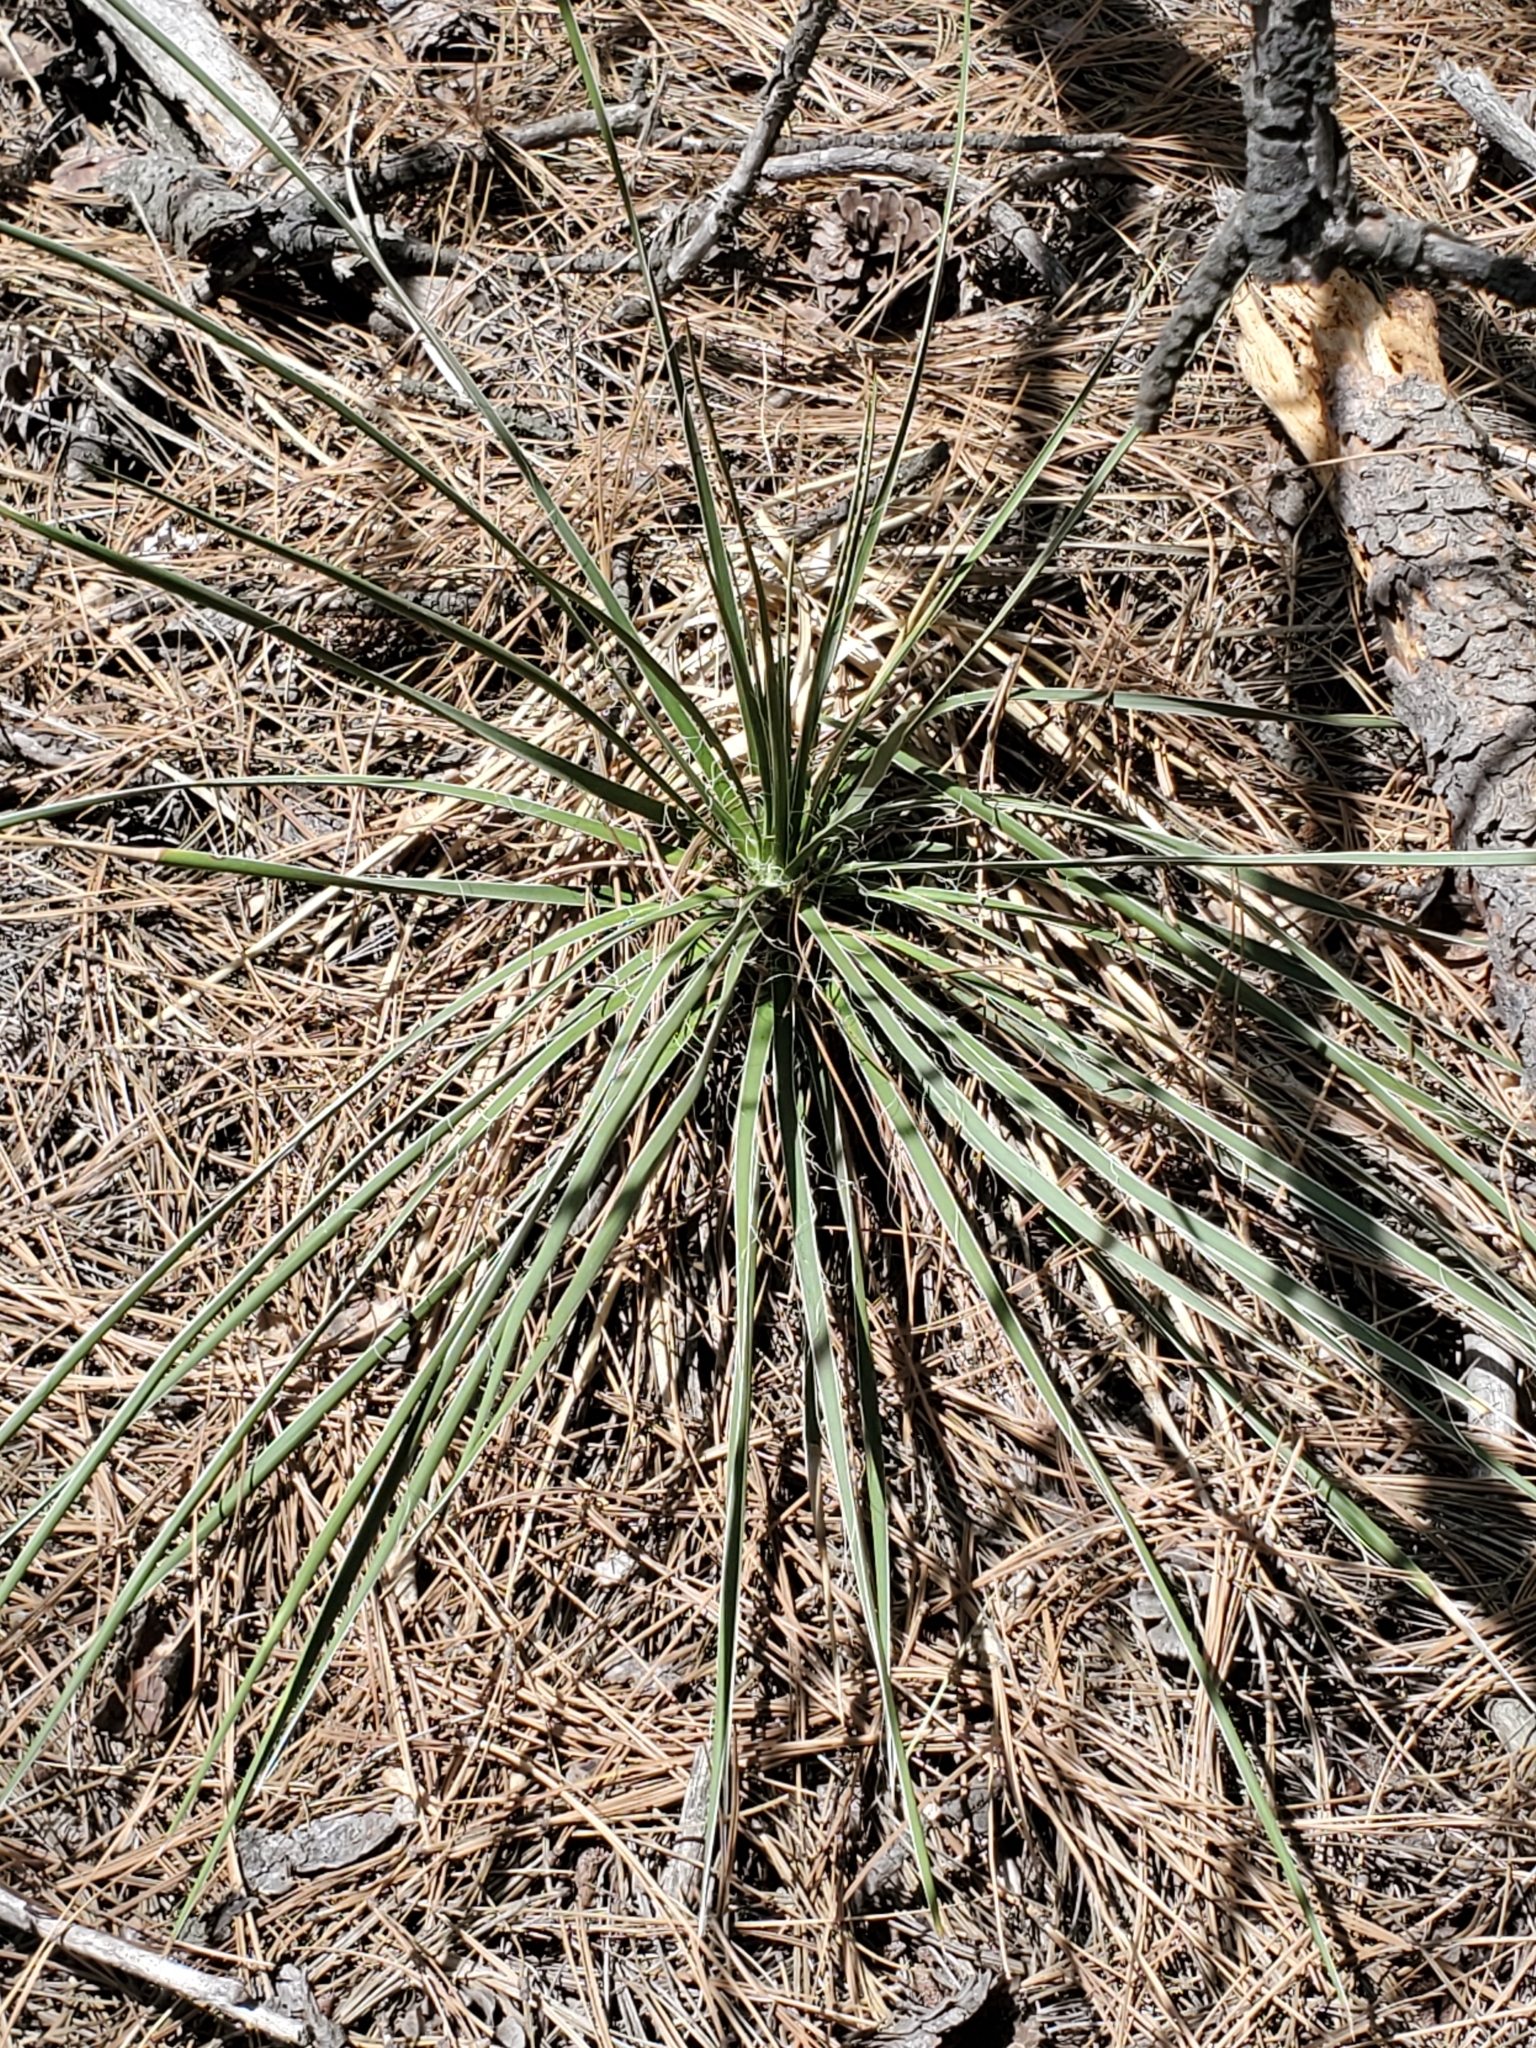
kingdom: Plantae
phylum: Tracheophyta
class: Liliopsida
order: Asparagales
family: Asparagaceae
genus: Yucca
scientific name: Yucca glauca
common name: Great plains yucca
